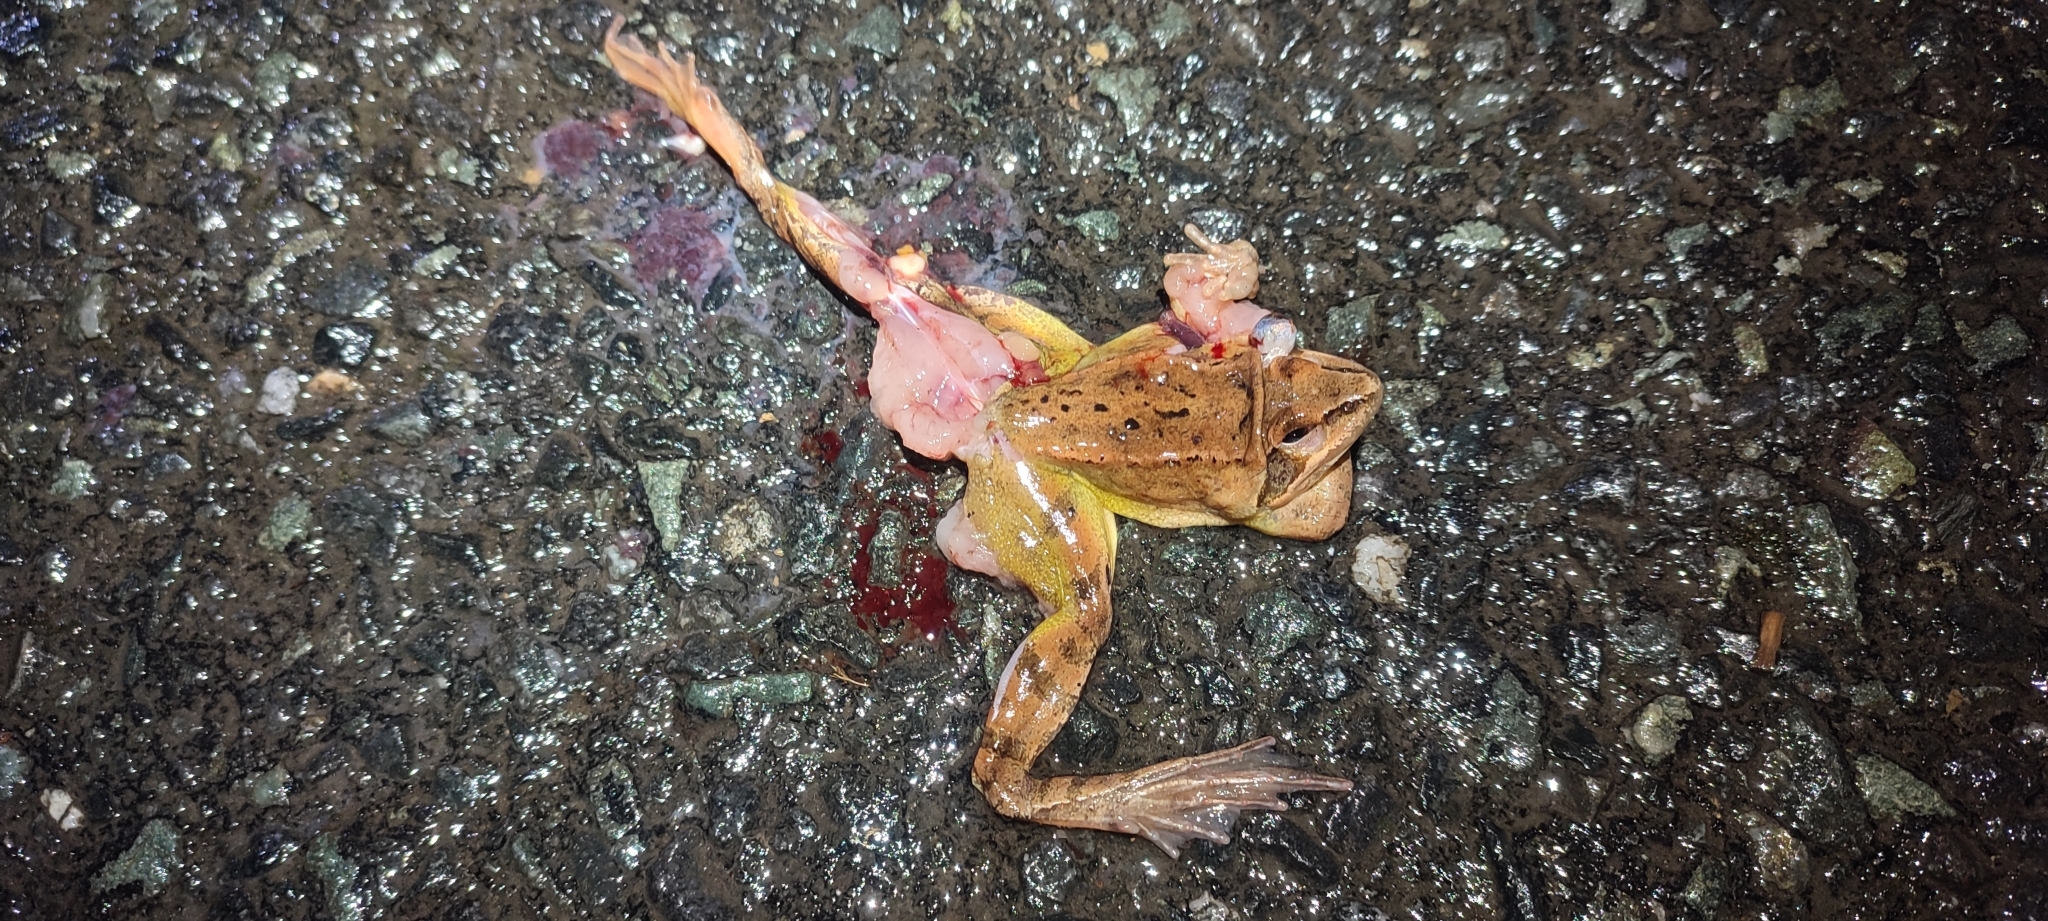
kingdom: Animalia
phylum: Chordata
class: Amphibia
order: Anura
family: Ranidae
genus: Rana
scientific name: Rana dalmatina
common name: Agile frog
